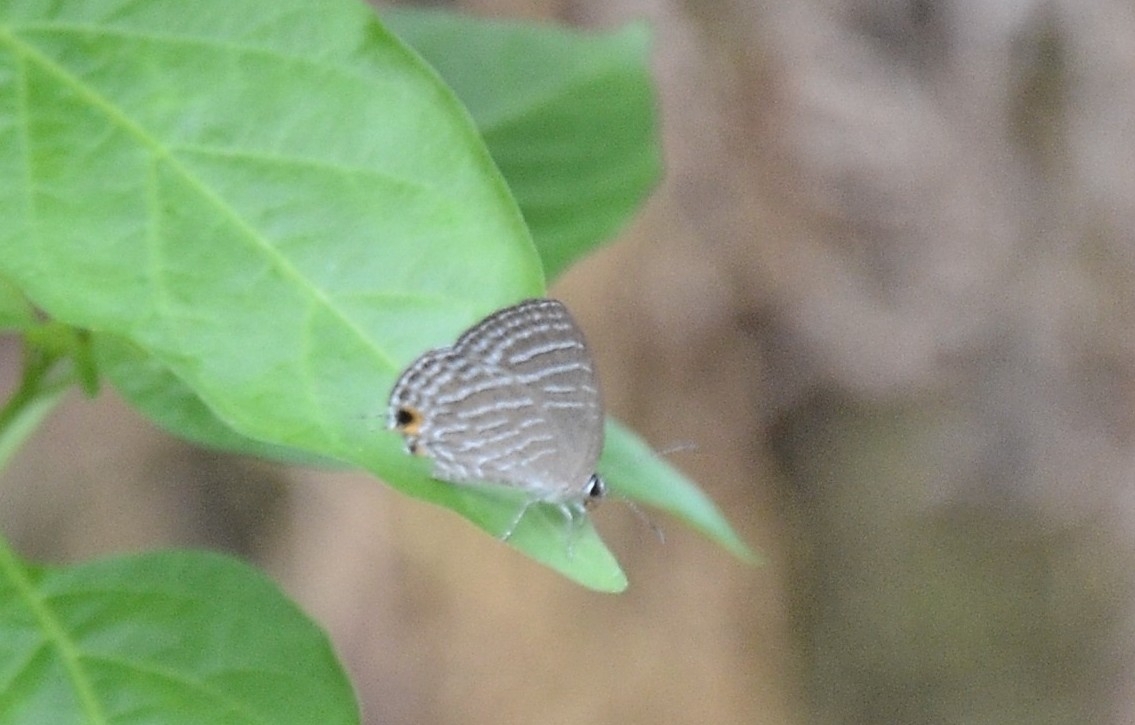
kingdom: Animalia
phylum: Arthropoda
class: Insecta
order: Lepidoptera
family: Lycaenidae
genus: Jamides
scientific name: Jamides celeno
